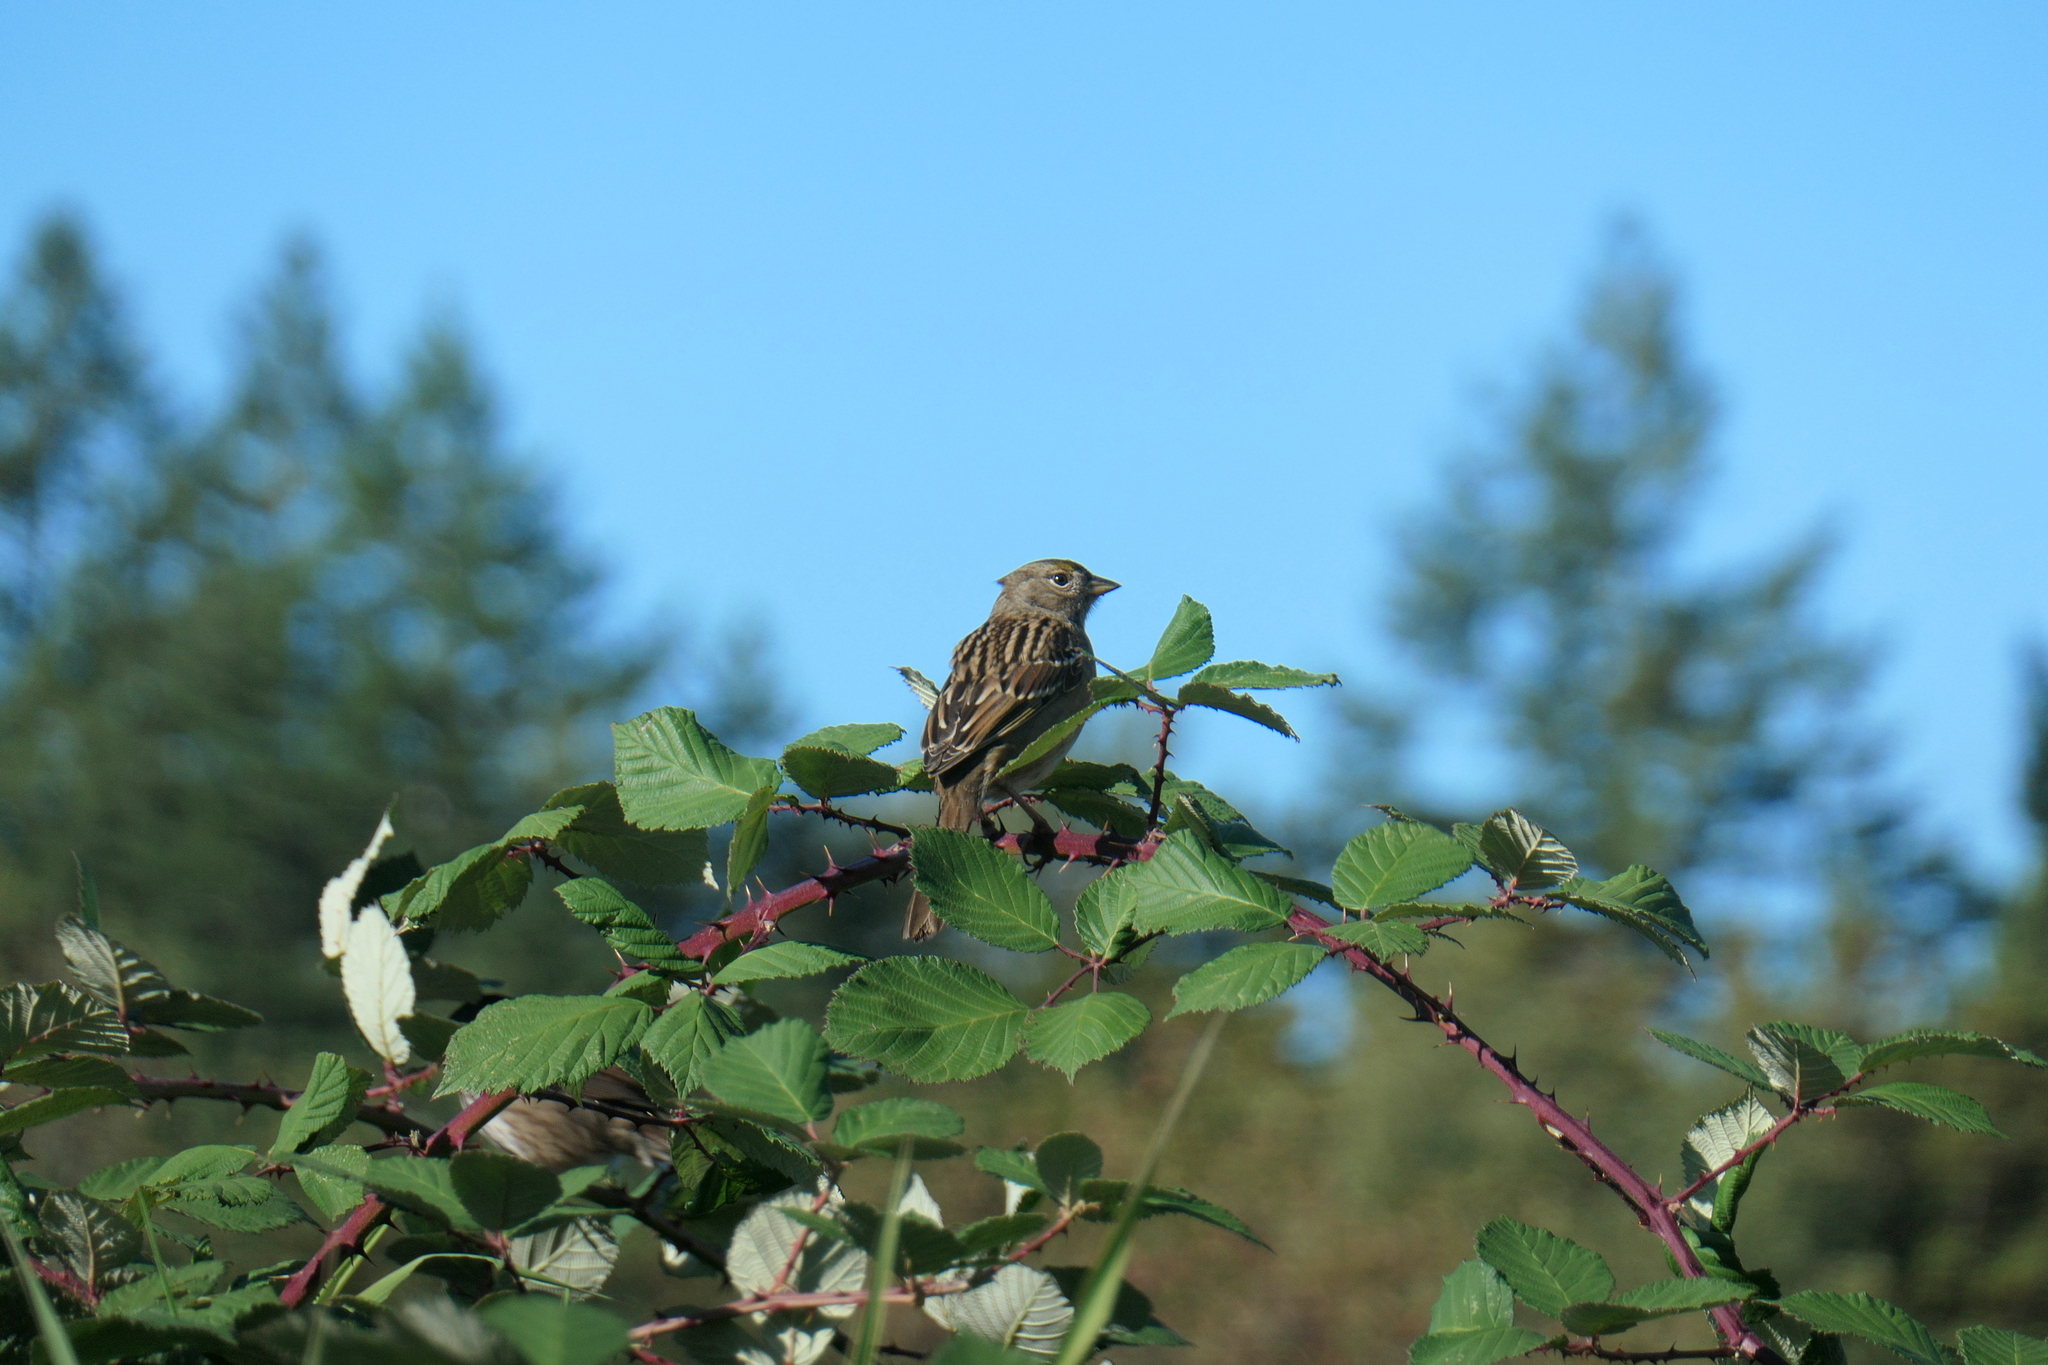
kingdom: Animalia
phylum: Chordata
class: Aves
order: Passeriformes
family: Passerellidae
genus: Zonotrichia
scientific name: Zonotrichia atricapilla
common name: Golden-crowned sparrow
